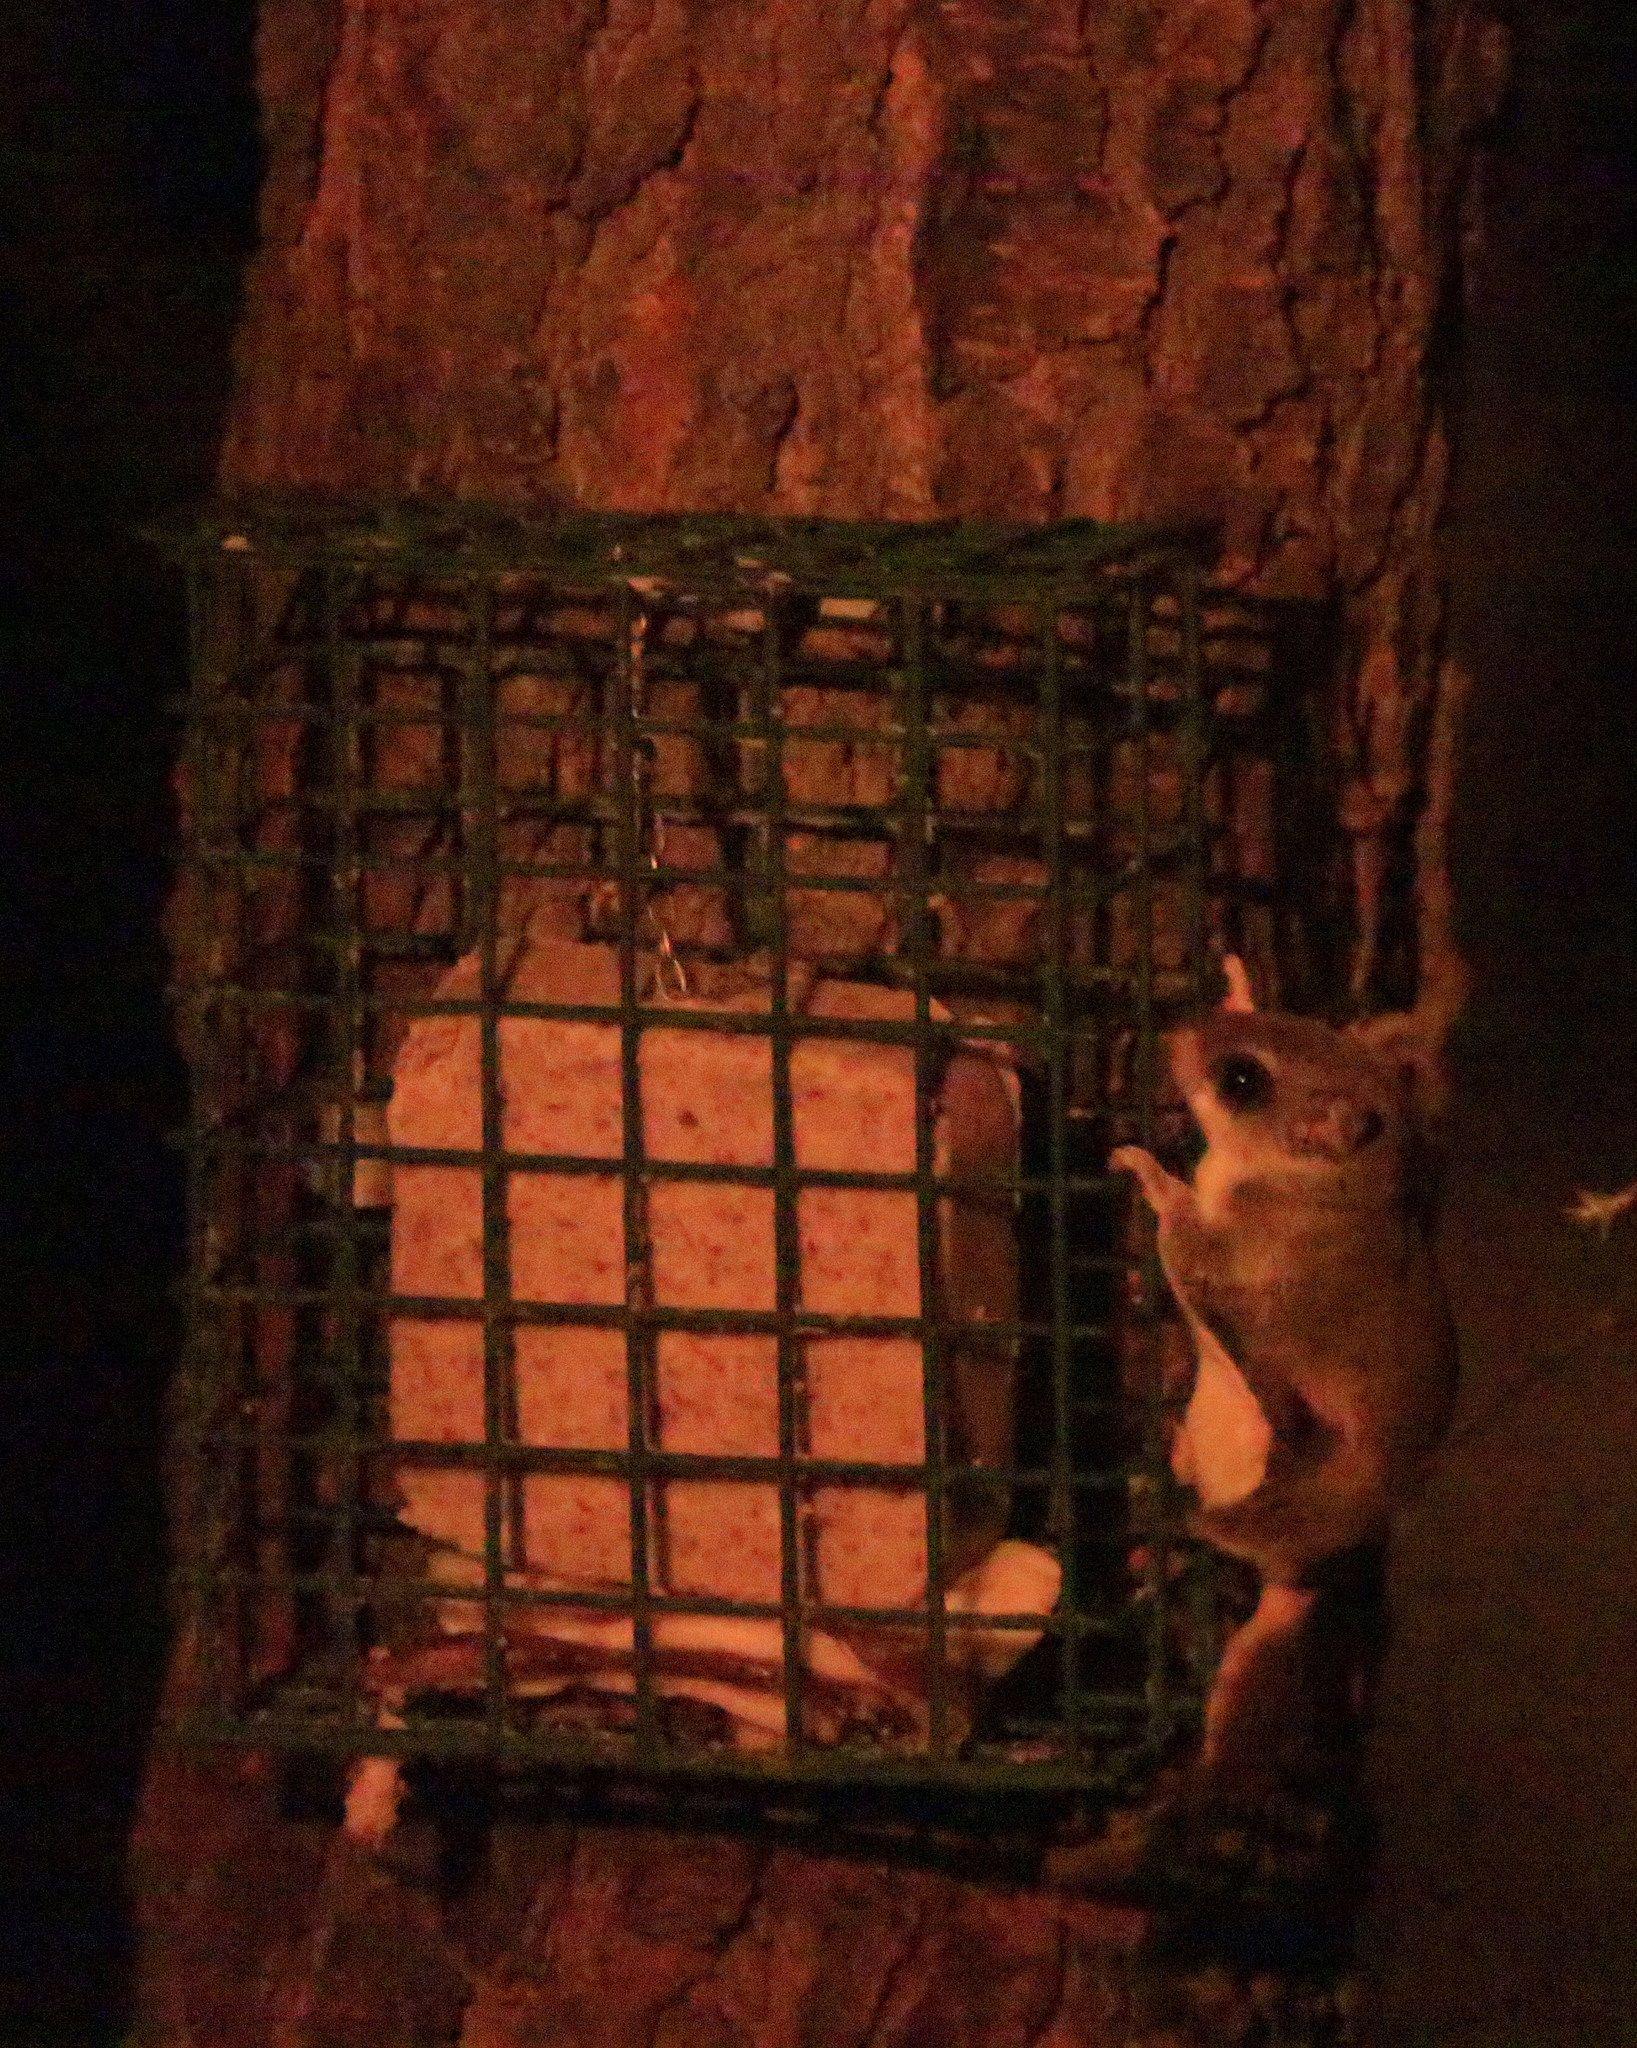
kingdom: Animalia
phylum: Chordata
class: Mammalia
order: Rodentia
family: Sciuridae
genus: Glaucomys
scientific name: Glaucomys volans
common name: Southern flying squirrel
